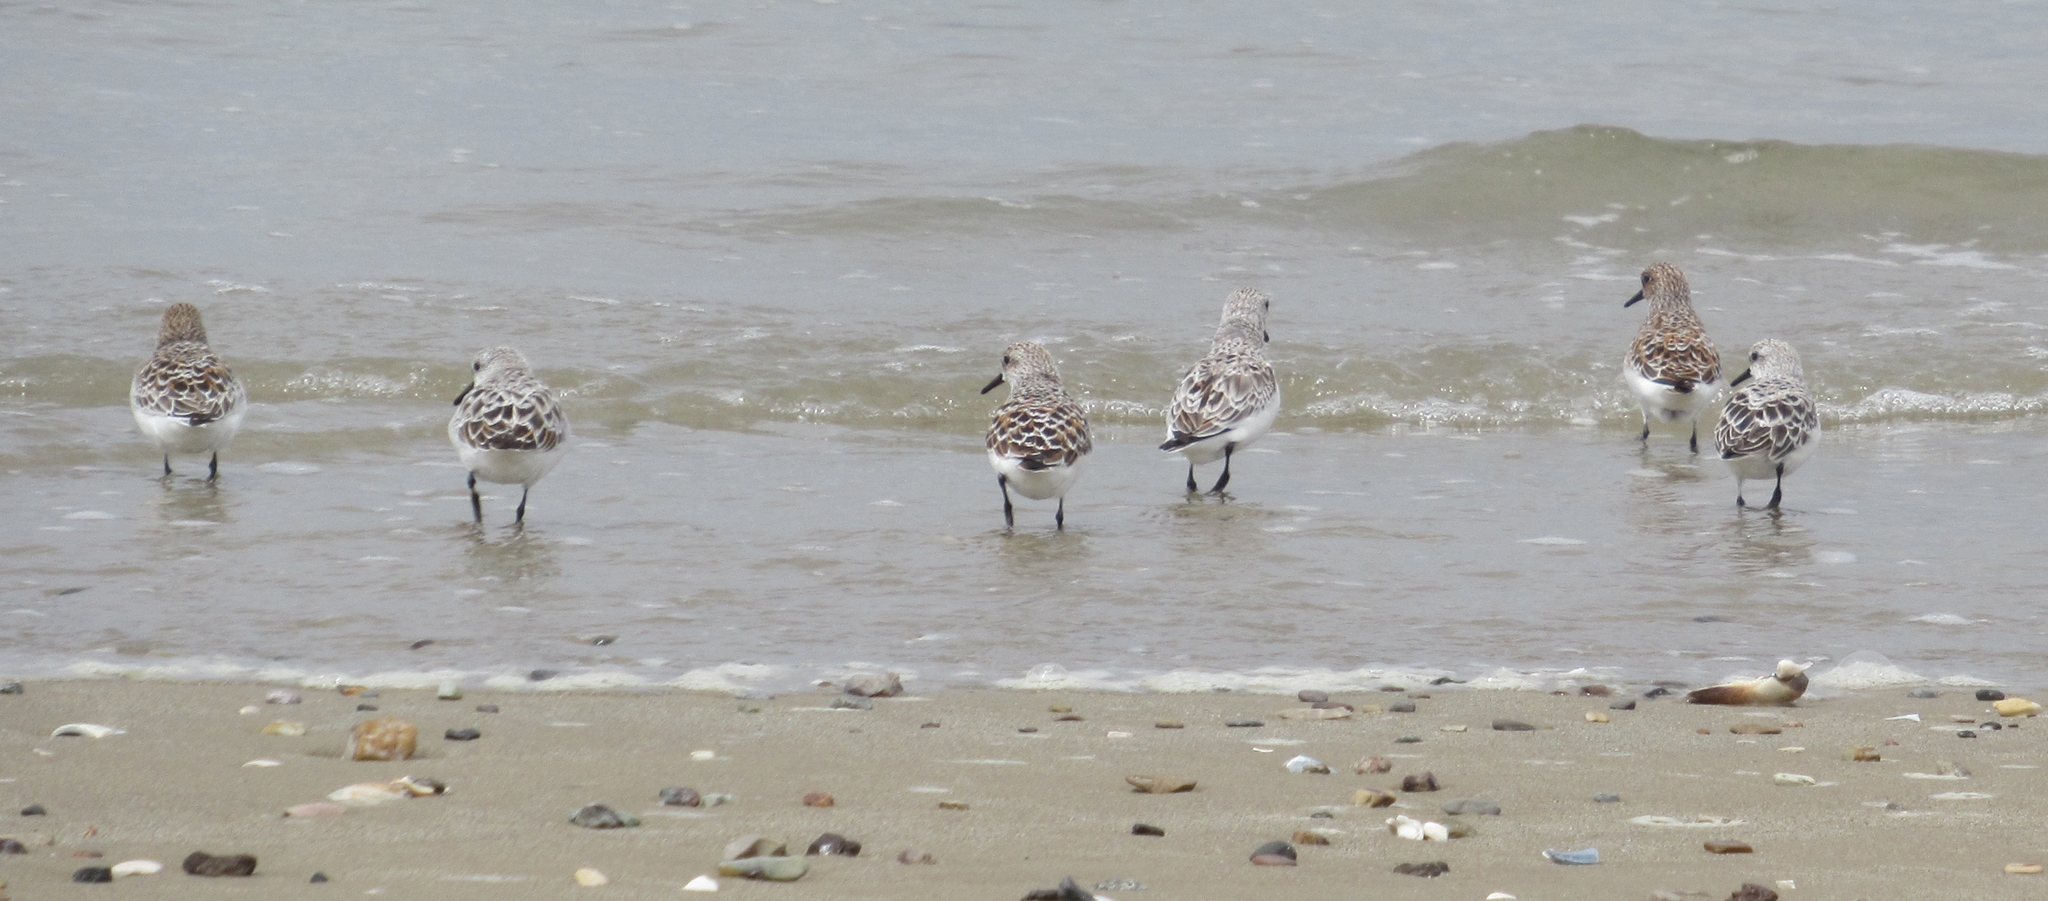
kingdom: Animalia
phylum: Chordata
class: Aves
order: Charadriiformes
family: Scolopacidae
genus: Calidris
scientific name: Calidris alba
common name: Sanderling
